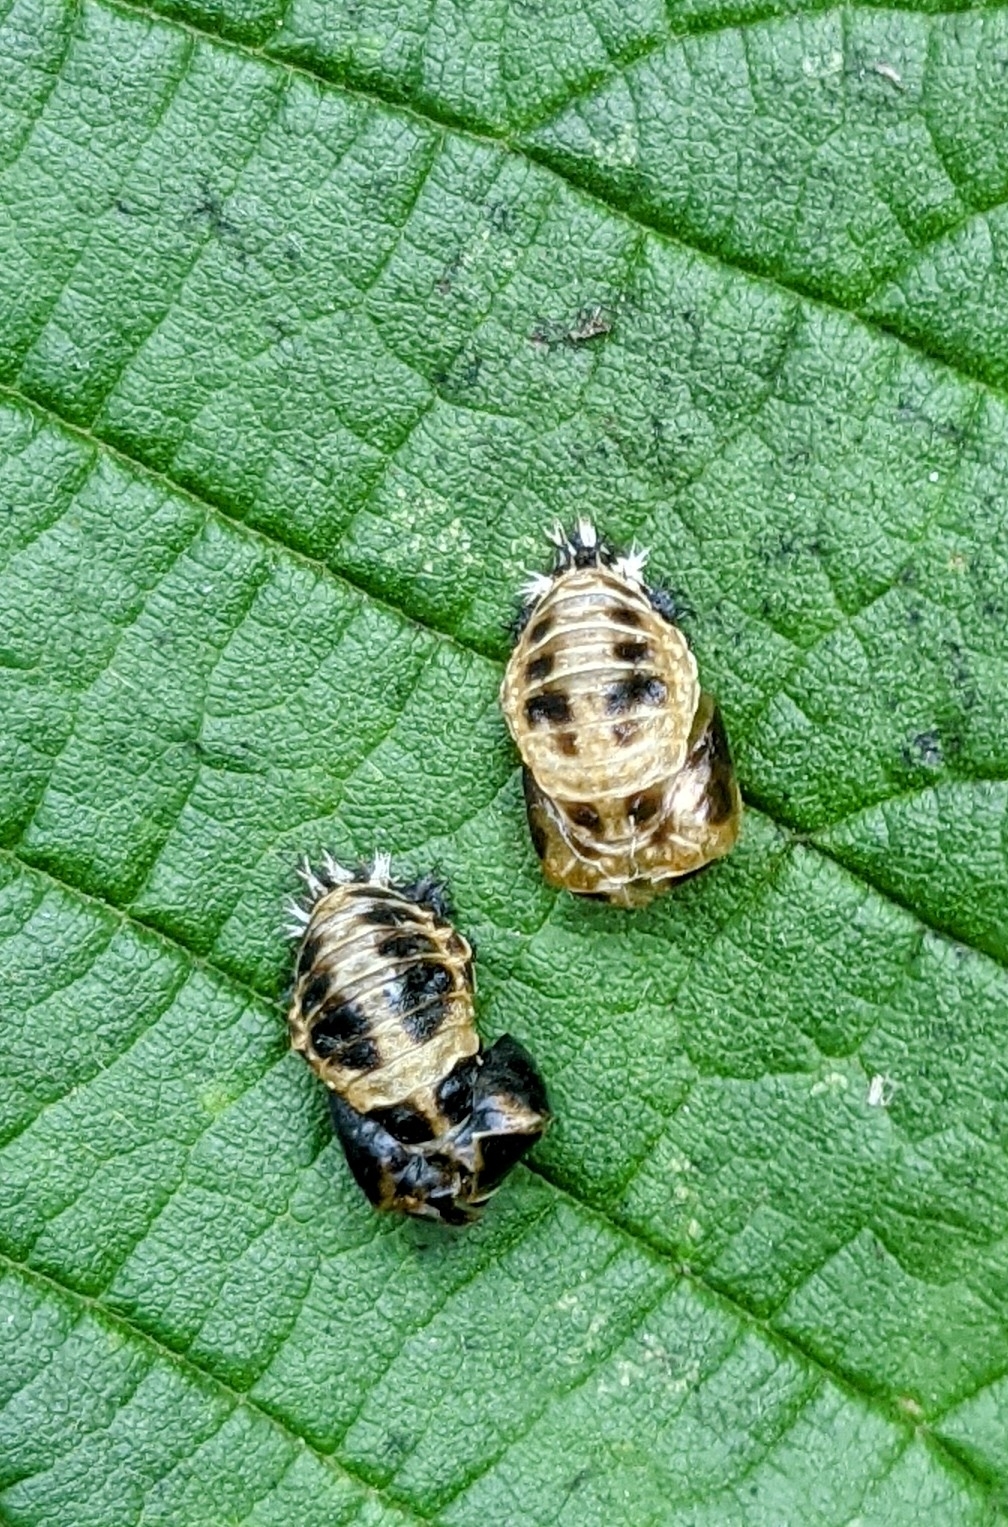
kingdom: Animalia
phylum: Arthropoda
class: Insecta
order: Coleoptera
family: Coccinellidae
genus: Harmonia
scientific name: Harmonia axyridis
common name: Harlequin ladybird
